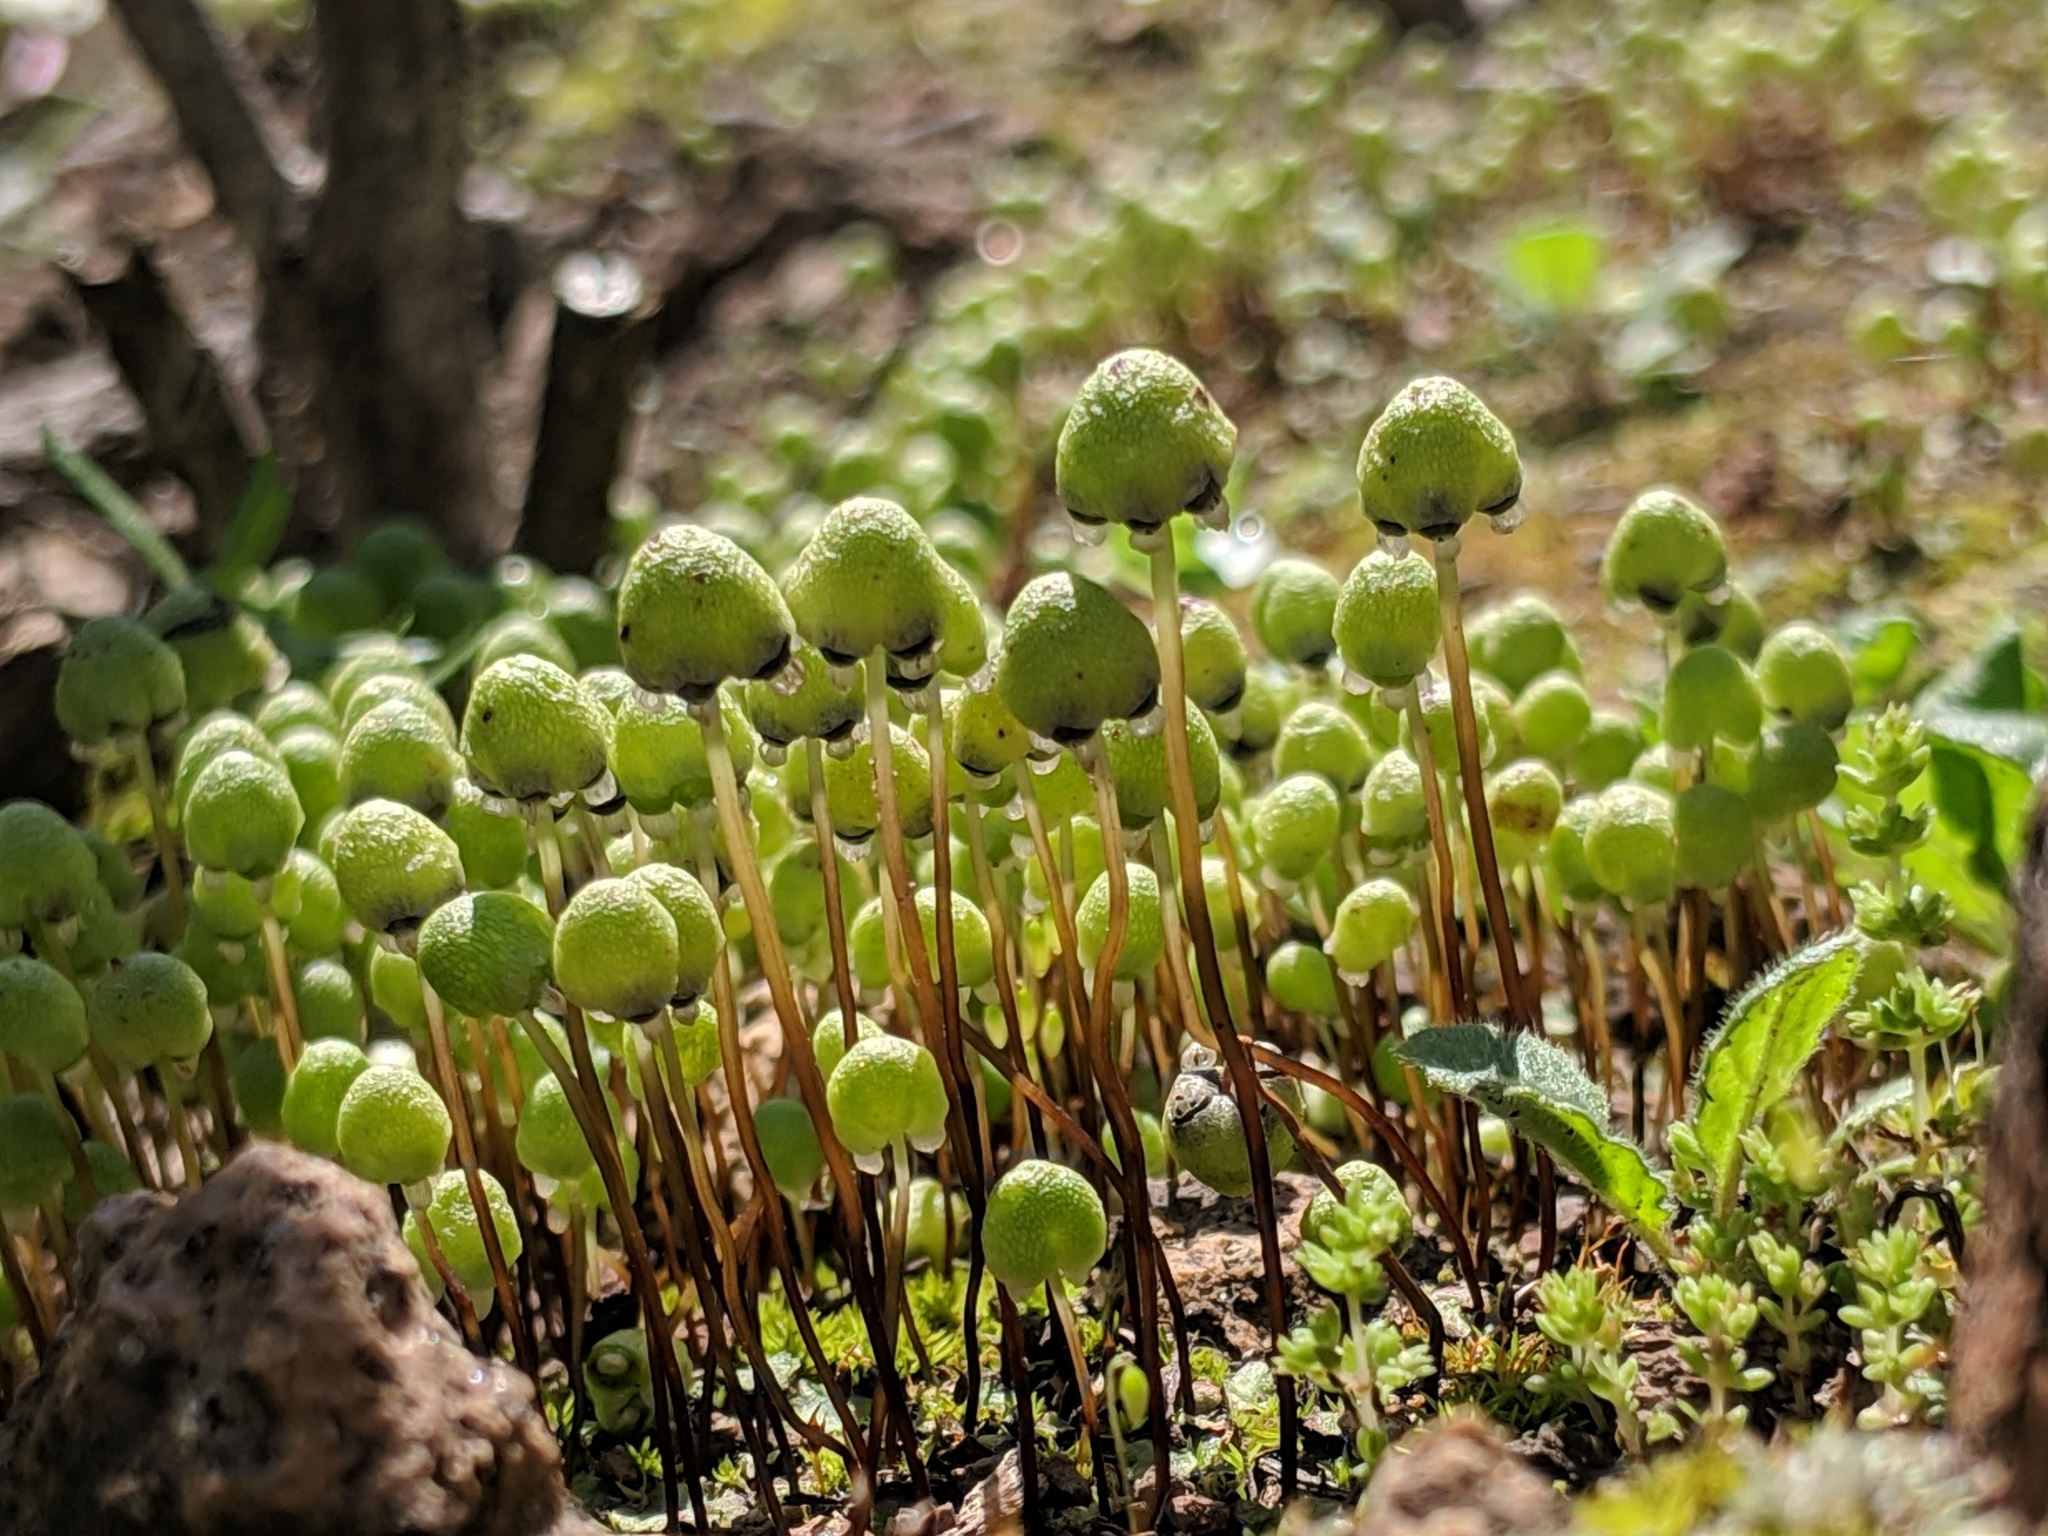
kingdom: Plantae
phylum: Marchantiophyta
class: Marchantiopsida
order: Marchantiales
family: Aytoniaceae
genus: Asterella
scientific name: Asterella palmeri
